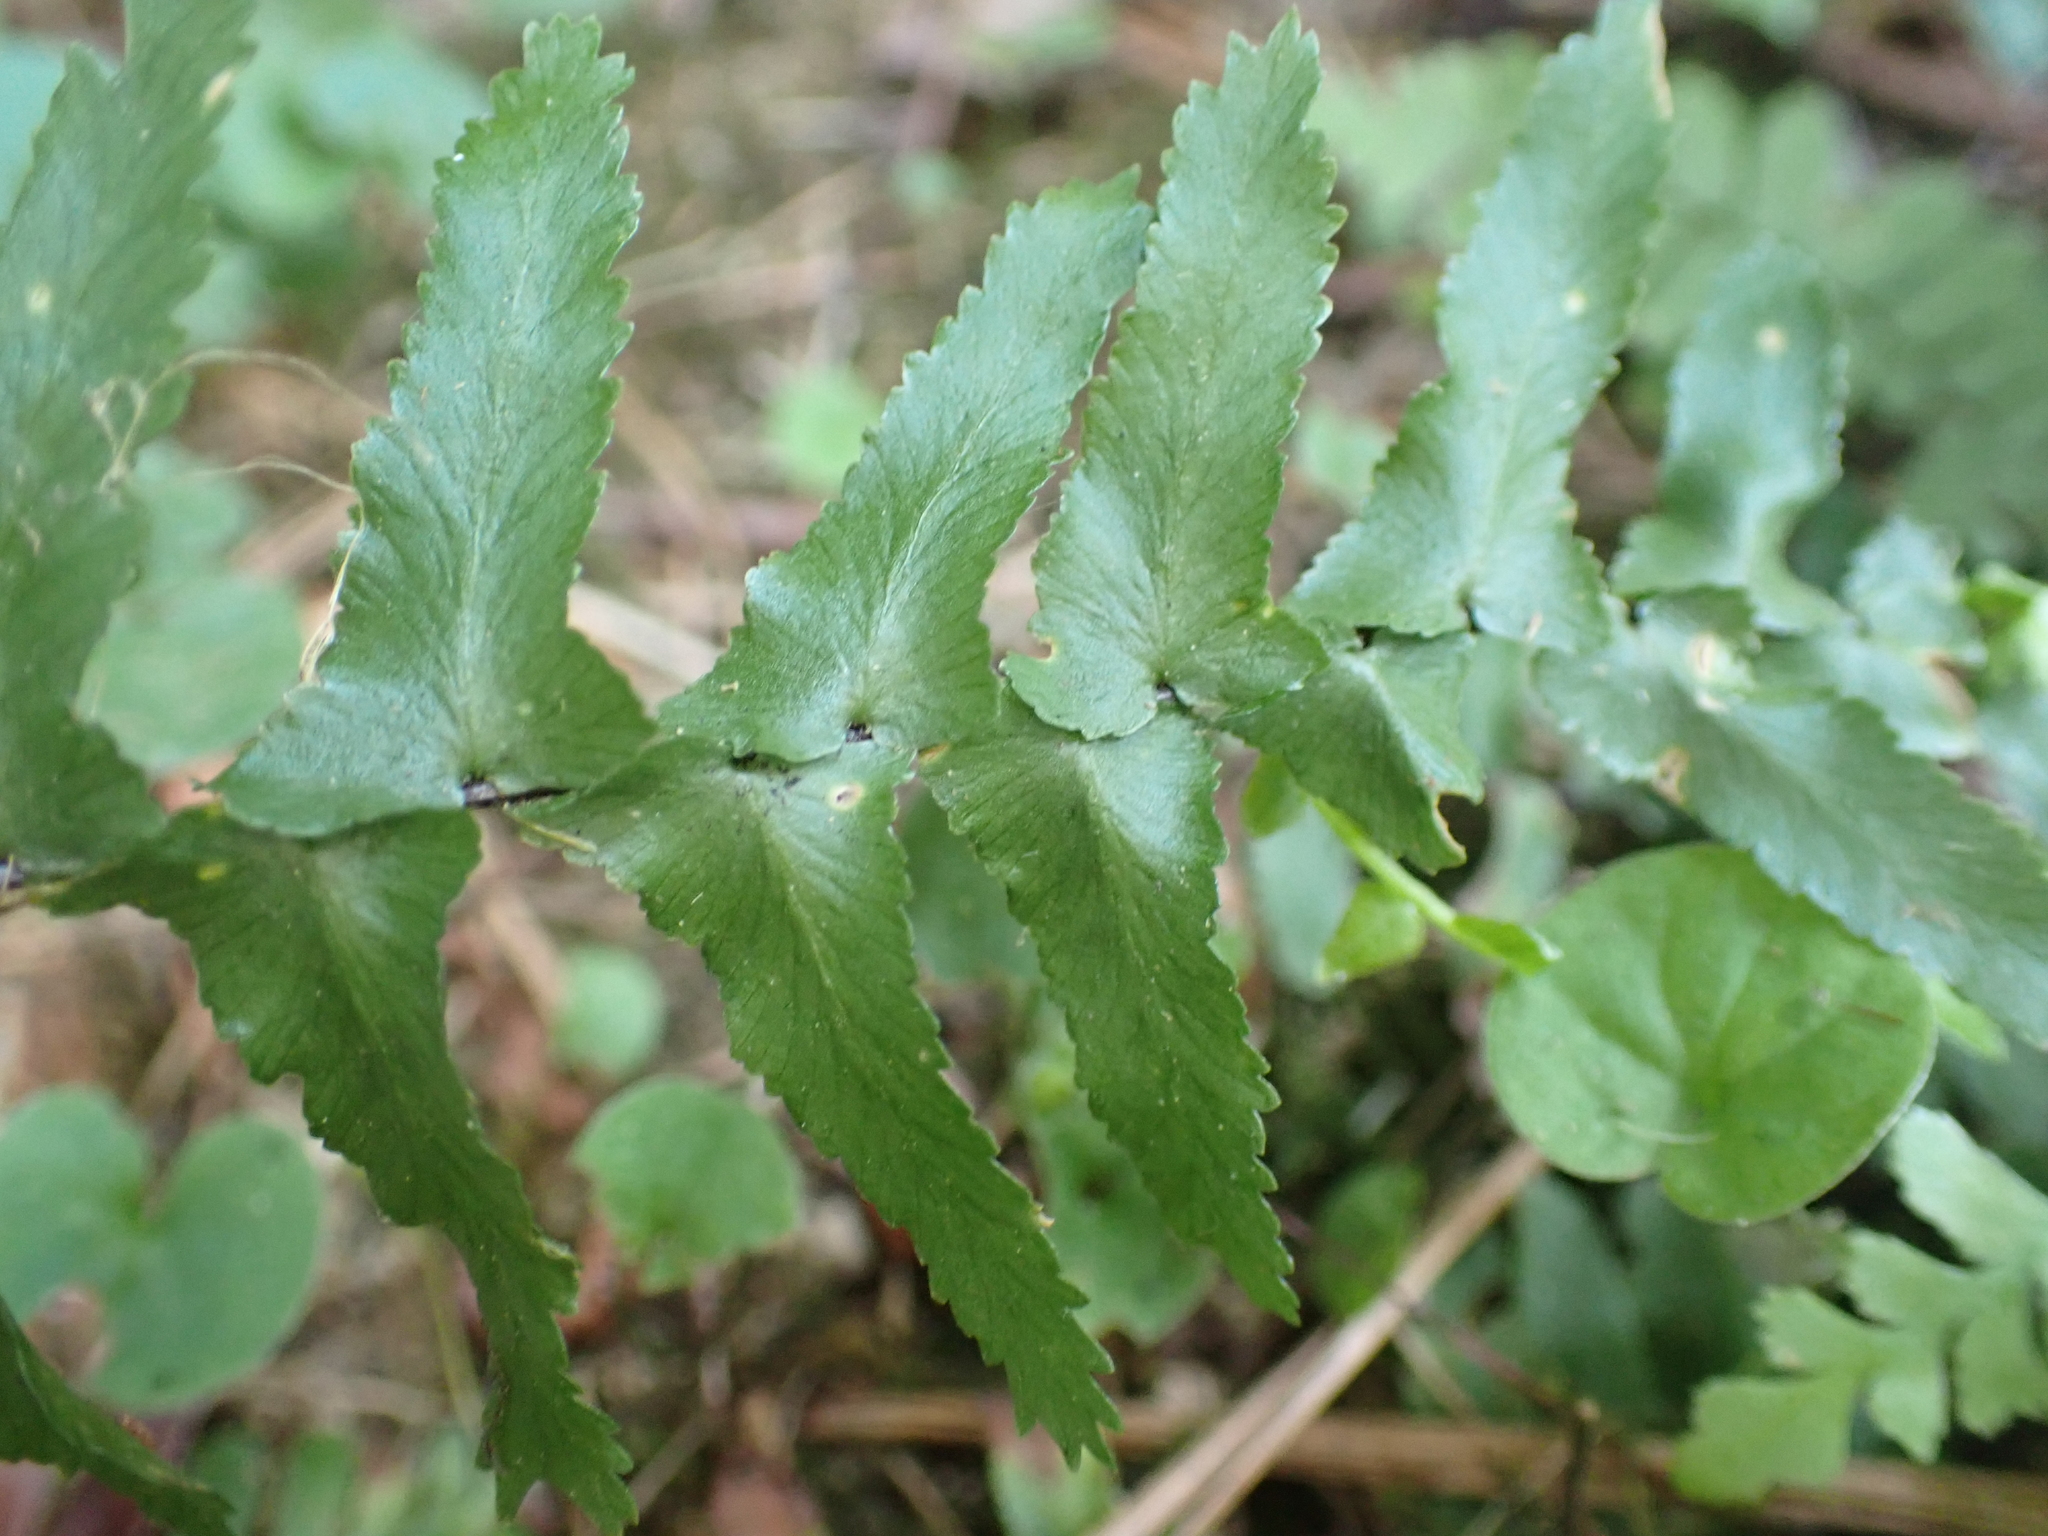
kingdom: Plantae
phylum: Tracheophyta
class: Polypodiopsida
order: Polypodiales
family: Aspleniaceae
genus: Asplenium
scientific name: Asplenium platyneuron
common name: Ebony spleenwort
